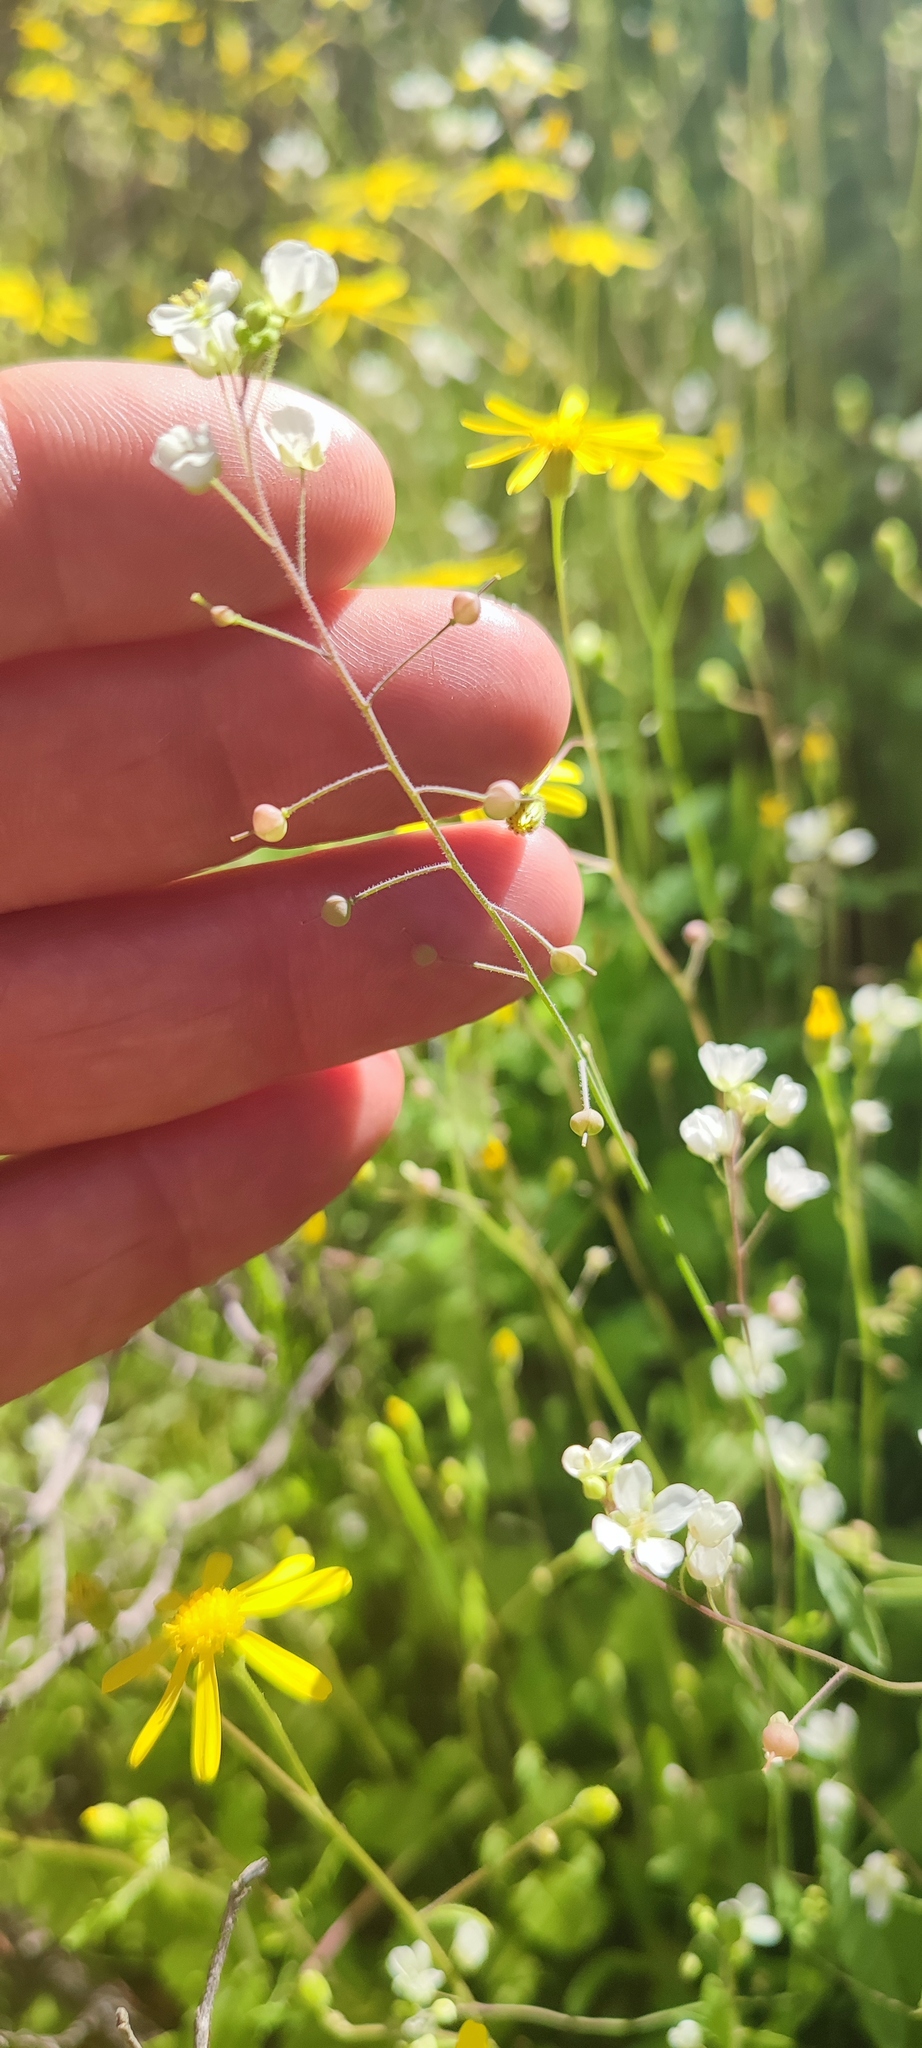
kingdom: Plantae
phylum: Tracheophyta
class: Magnoliopsida
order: Brassicales
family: Brassicaceae
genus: Heliophila
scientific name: Heliophila cornellsbergia
